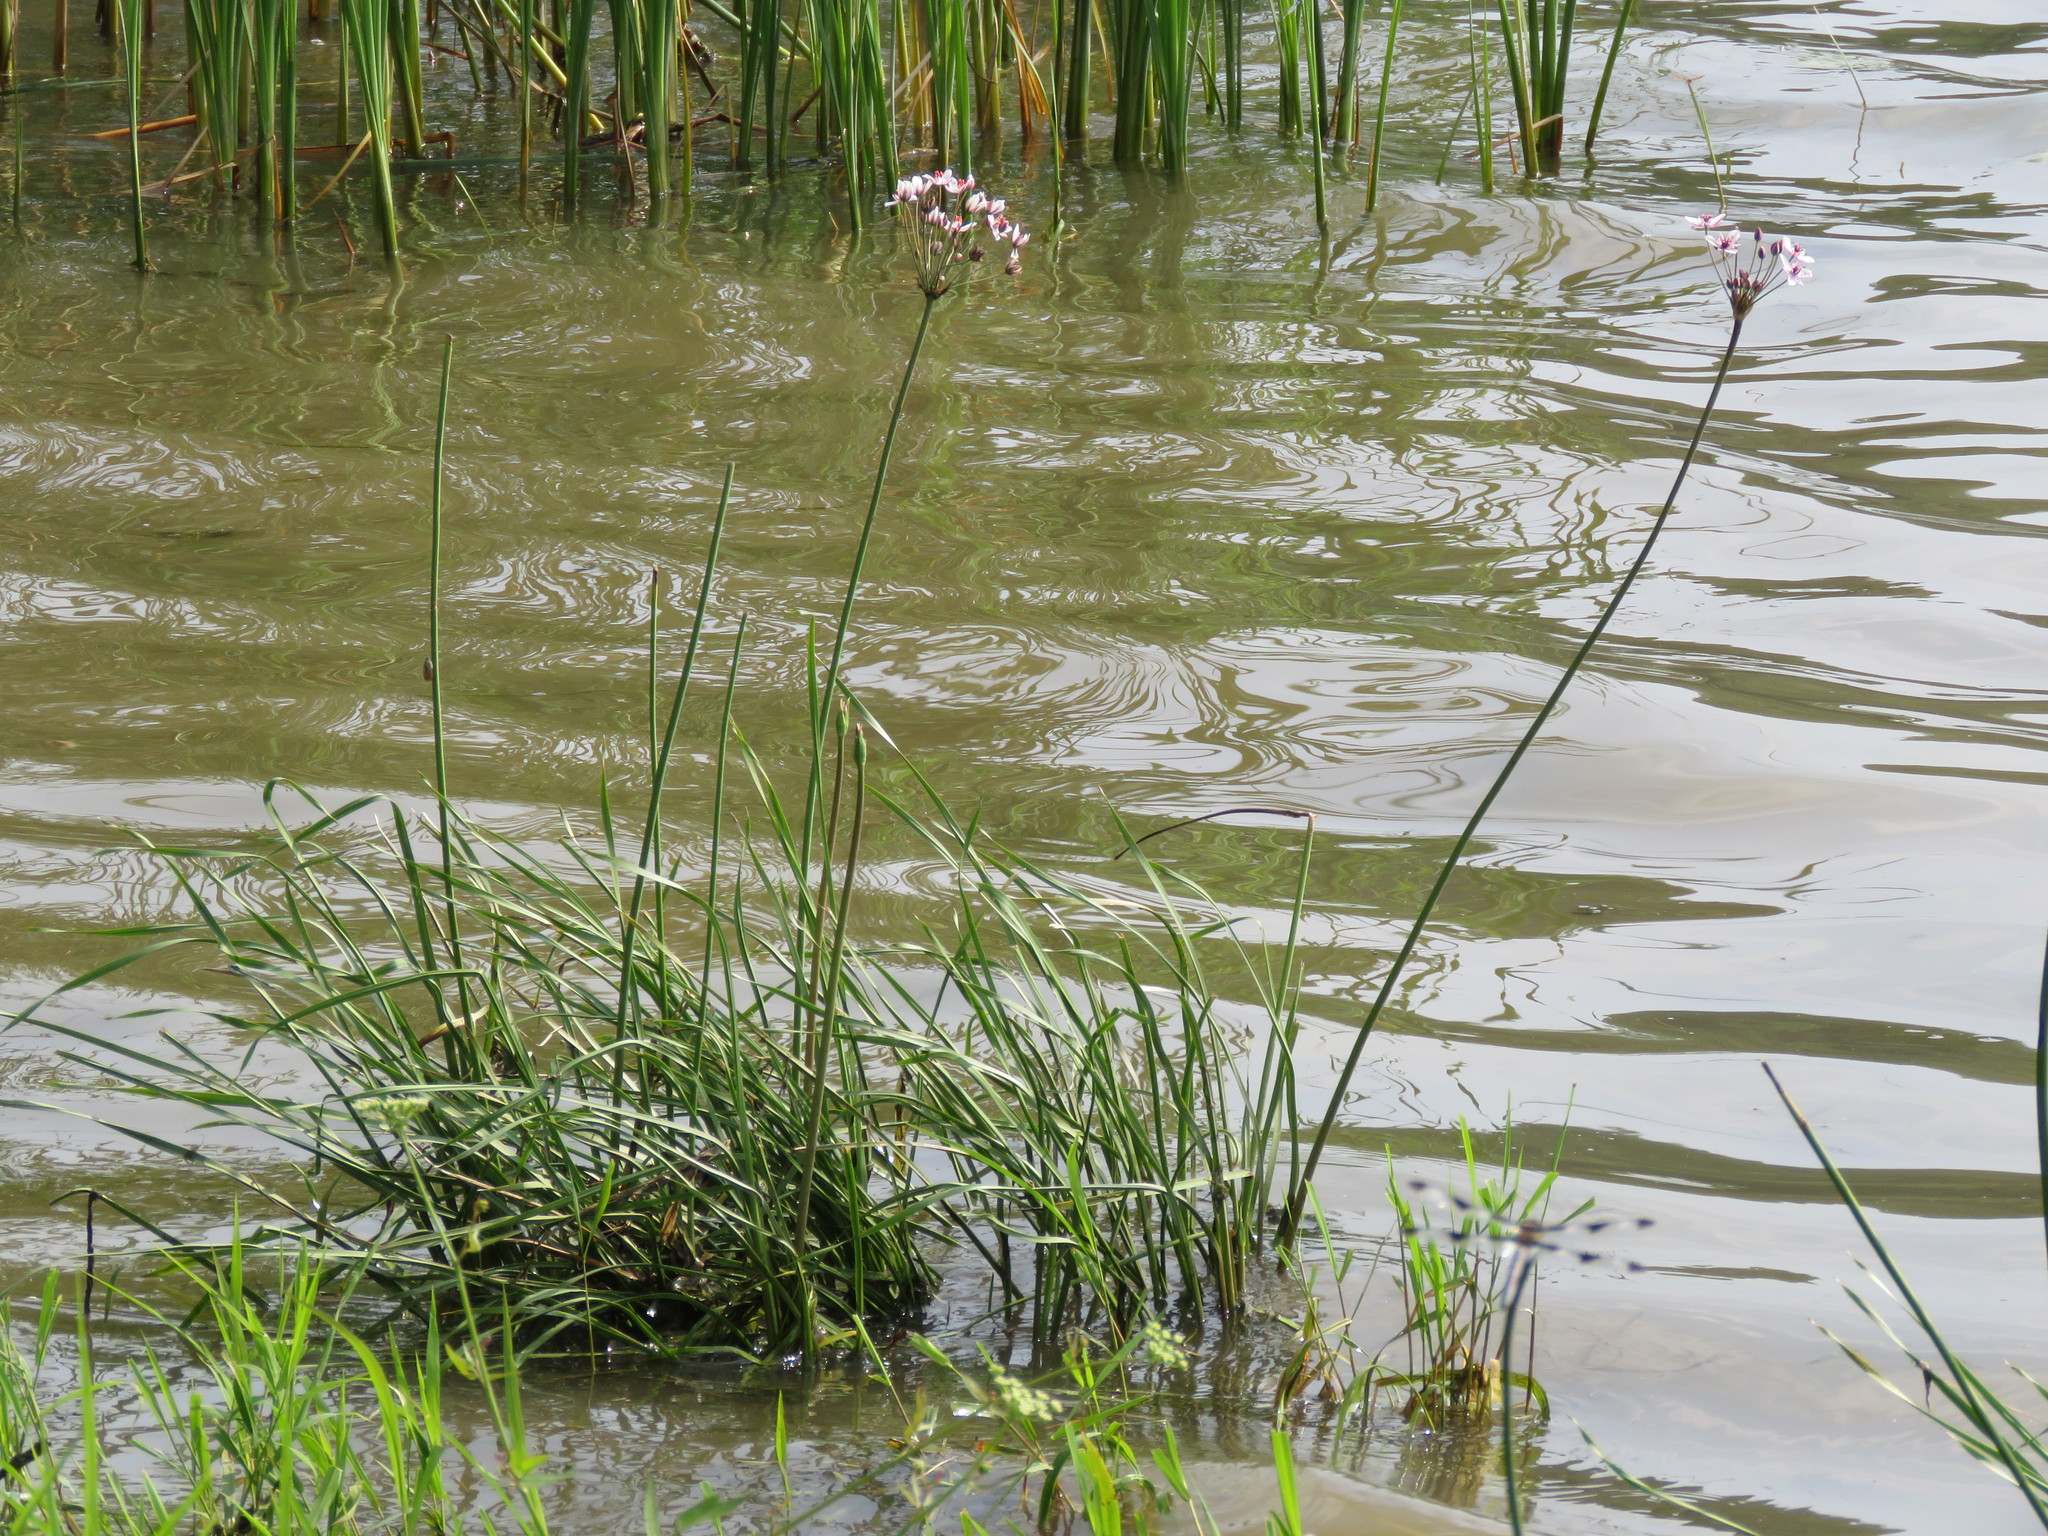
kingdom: Plantae
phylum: Tracheophyta
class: Liliopsida
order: Alismatales
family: Butomaceae
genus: Butomus
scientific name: Butomus umbellatus
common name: Flowering-rush
